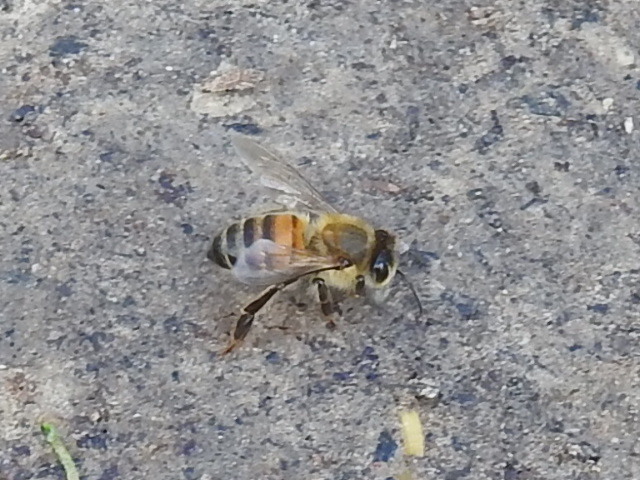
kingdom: Animalia
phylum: Arthropoda
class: Insecta
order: Hymenoptera
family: Apidae
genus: Apis
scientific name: Apis mellifera
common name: Honey bee
